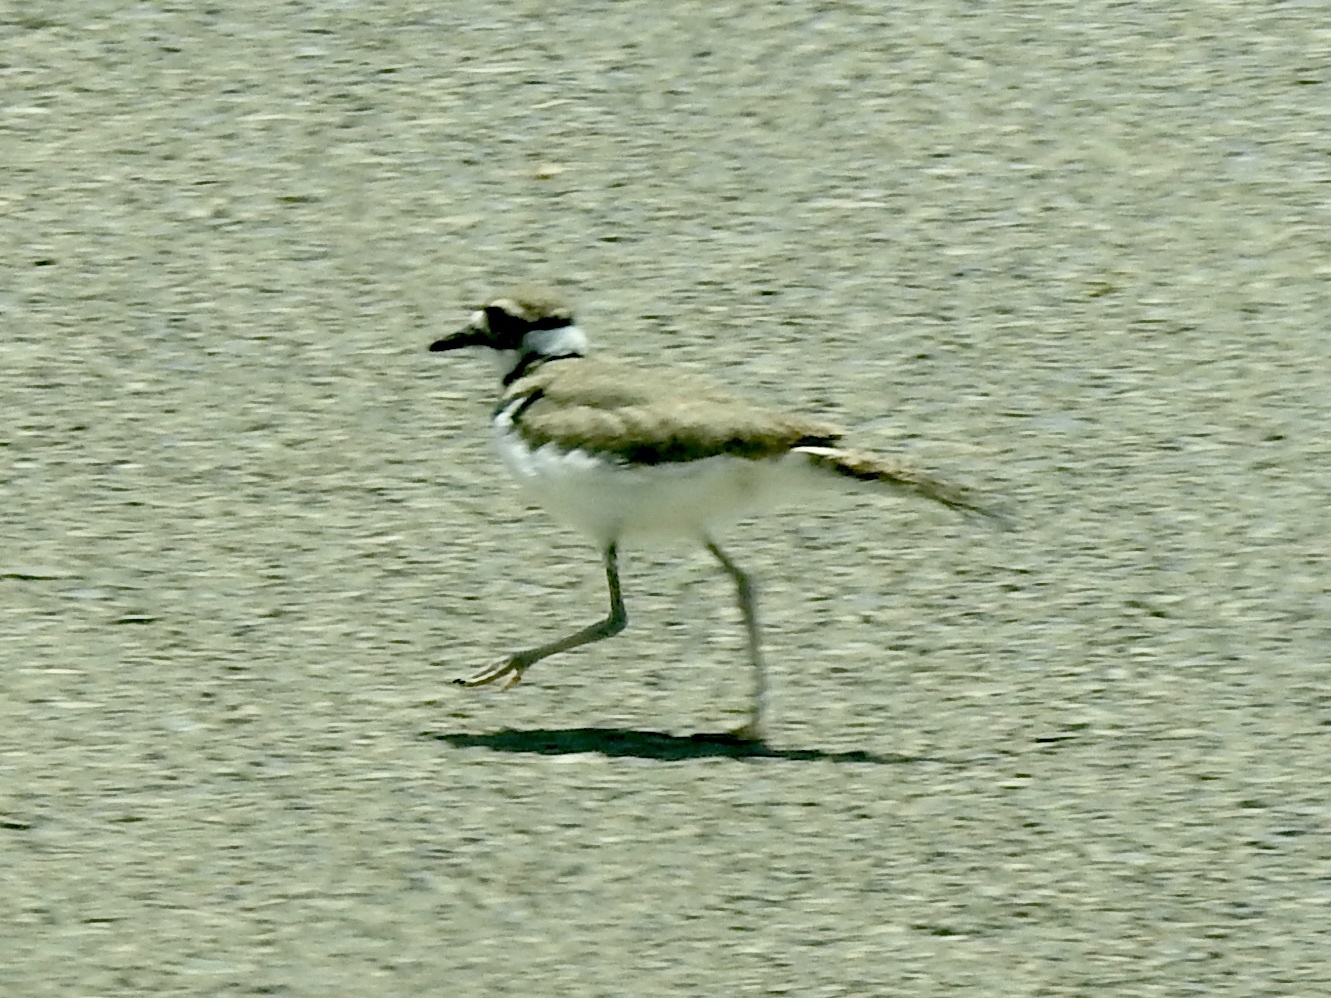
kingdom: Animalia
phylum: Chordata
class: Aves
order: Charadriiformes
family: Charadriidae
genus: Charadrius
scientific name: Charadrius vociferus
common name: Killdeer
